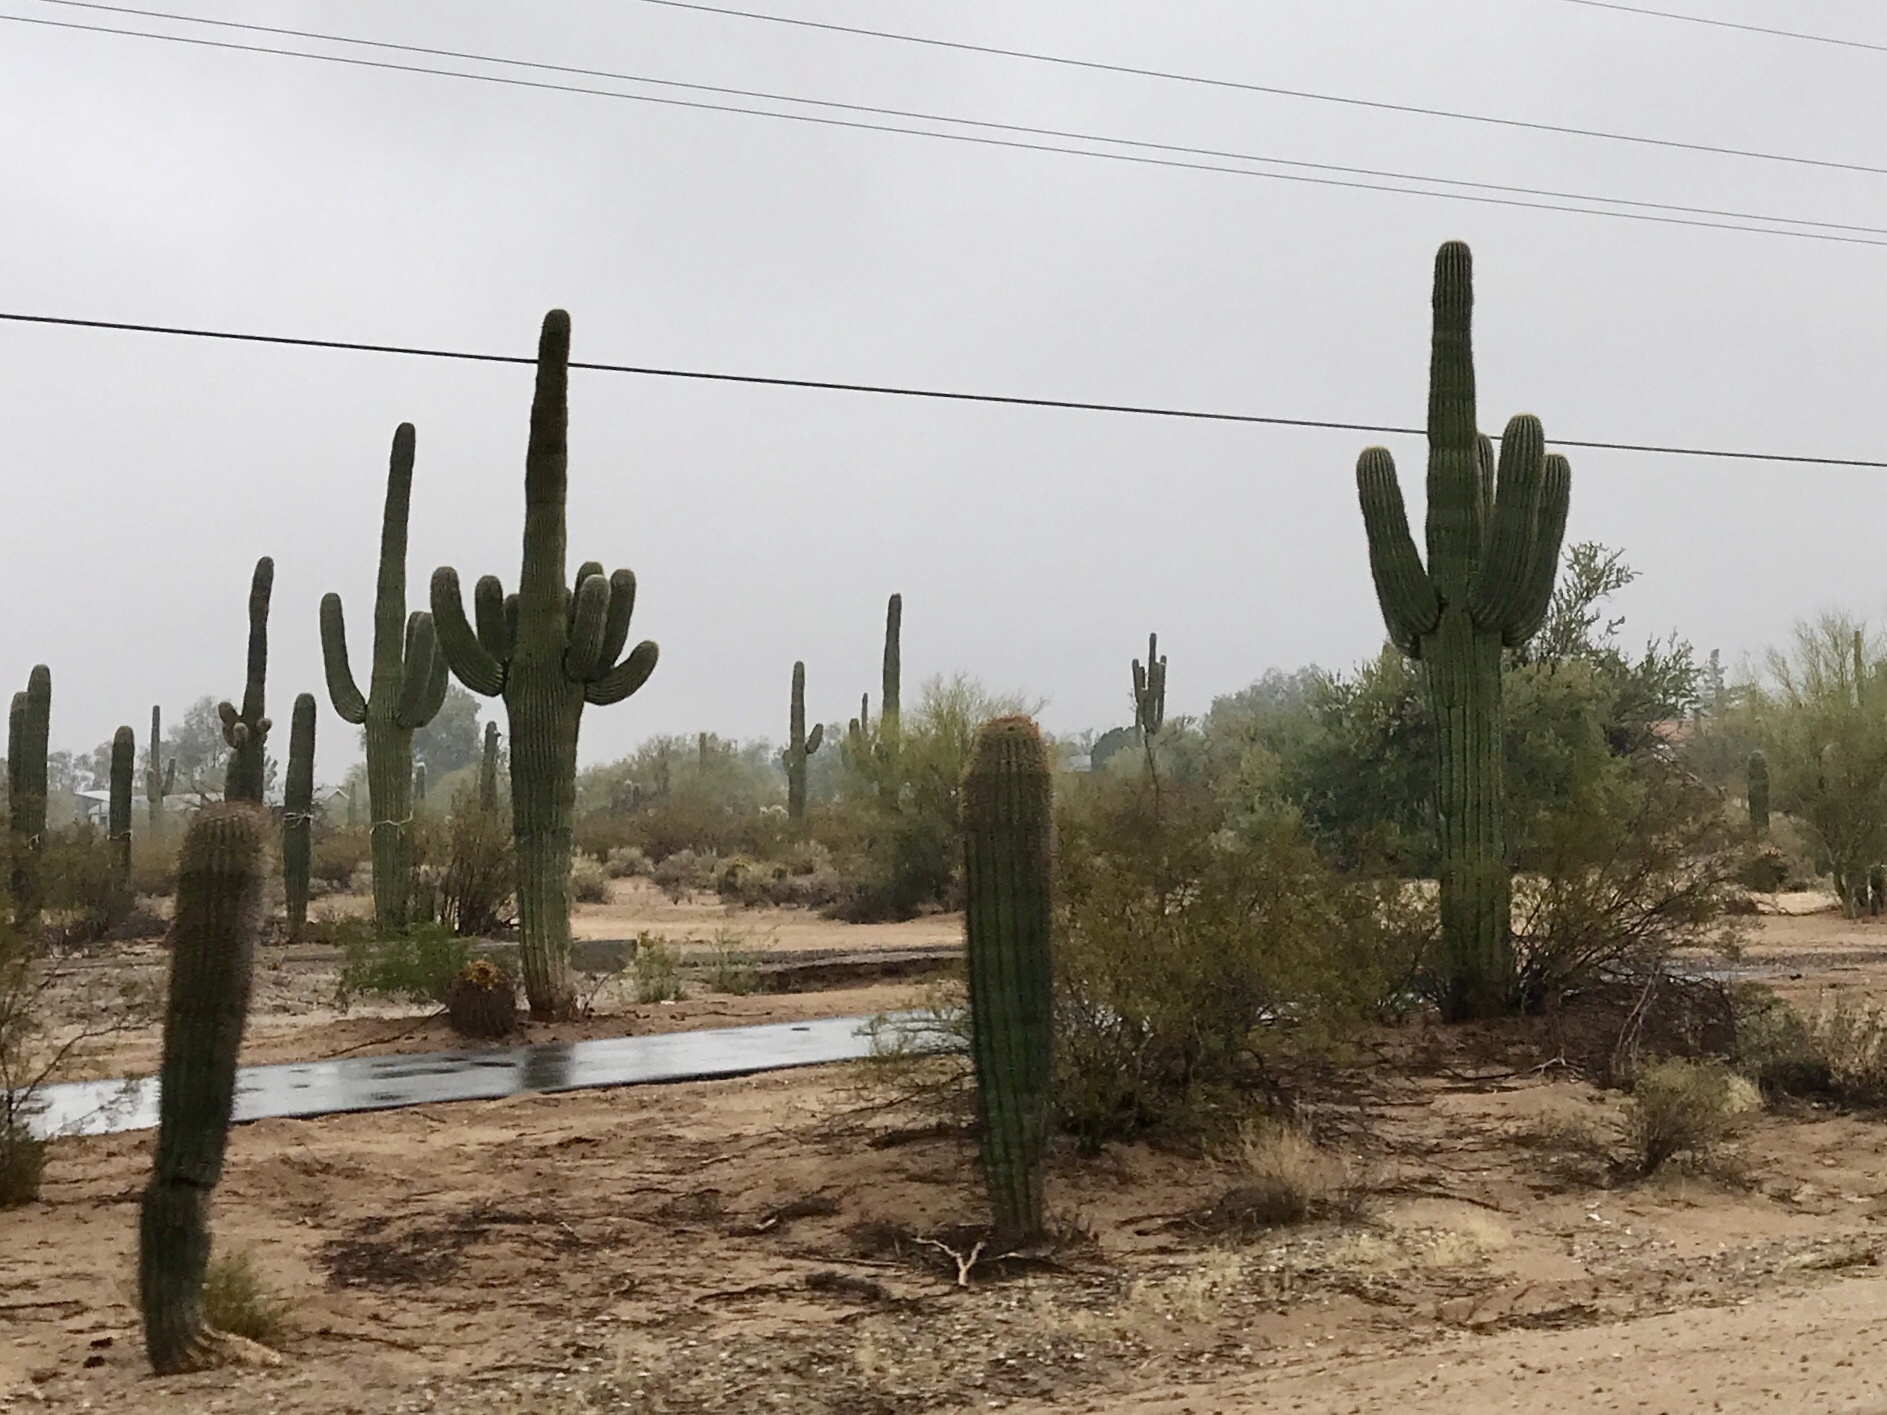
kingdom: Plantae
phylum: Tracheophyta
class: Magnoliopsida
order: Caryophyllales
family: Cactaceae
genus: Carnegiea
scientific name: Carnegiea gigantea
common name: Saguaro
